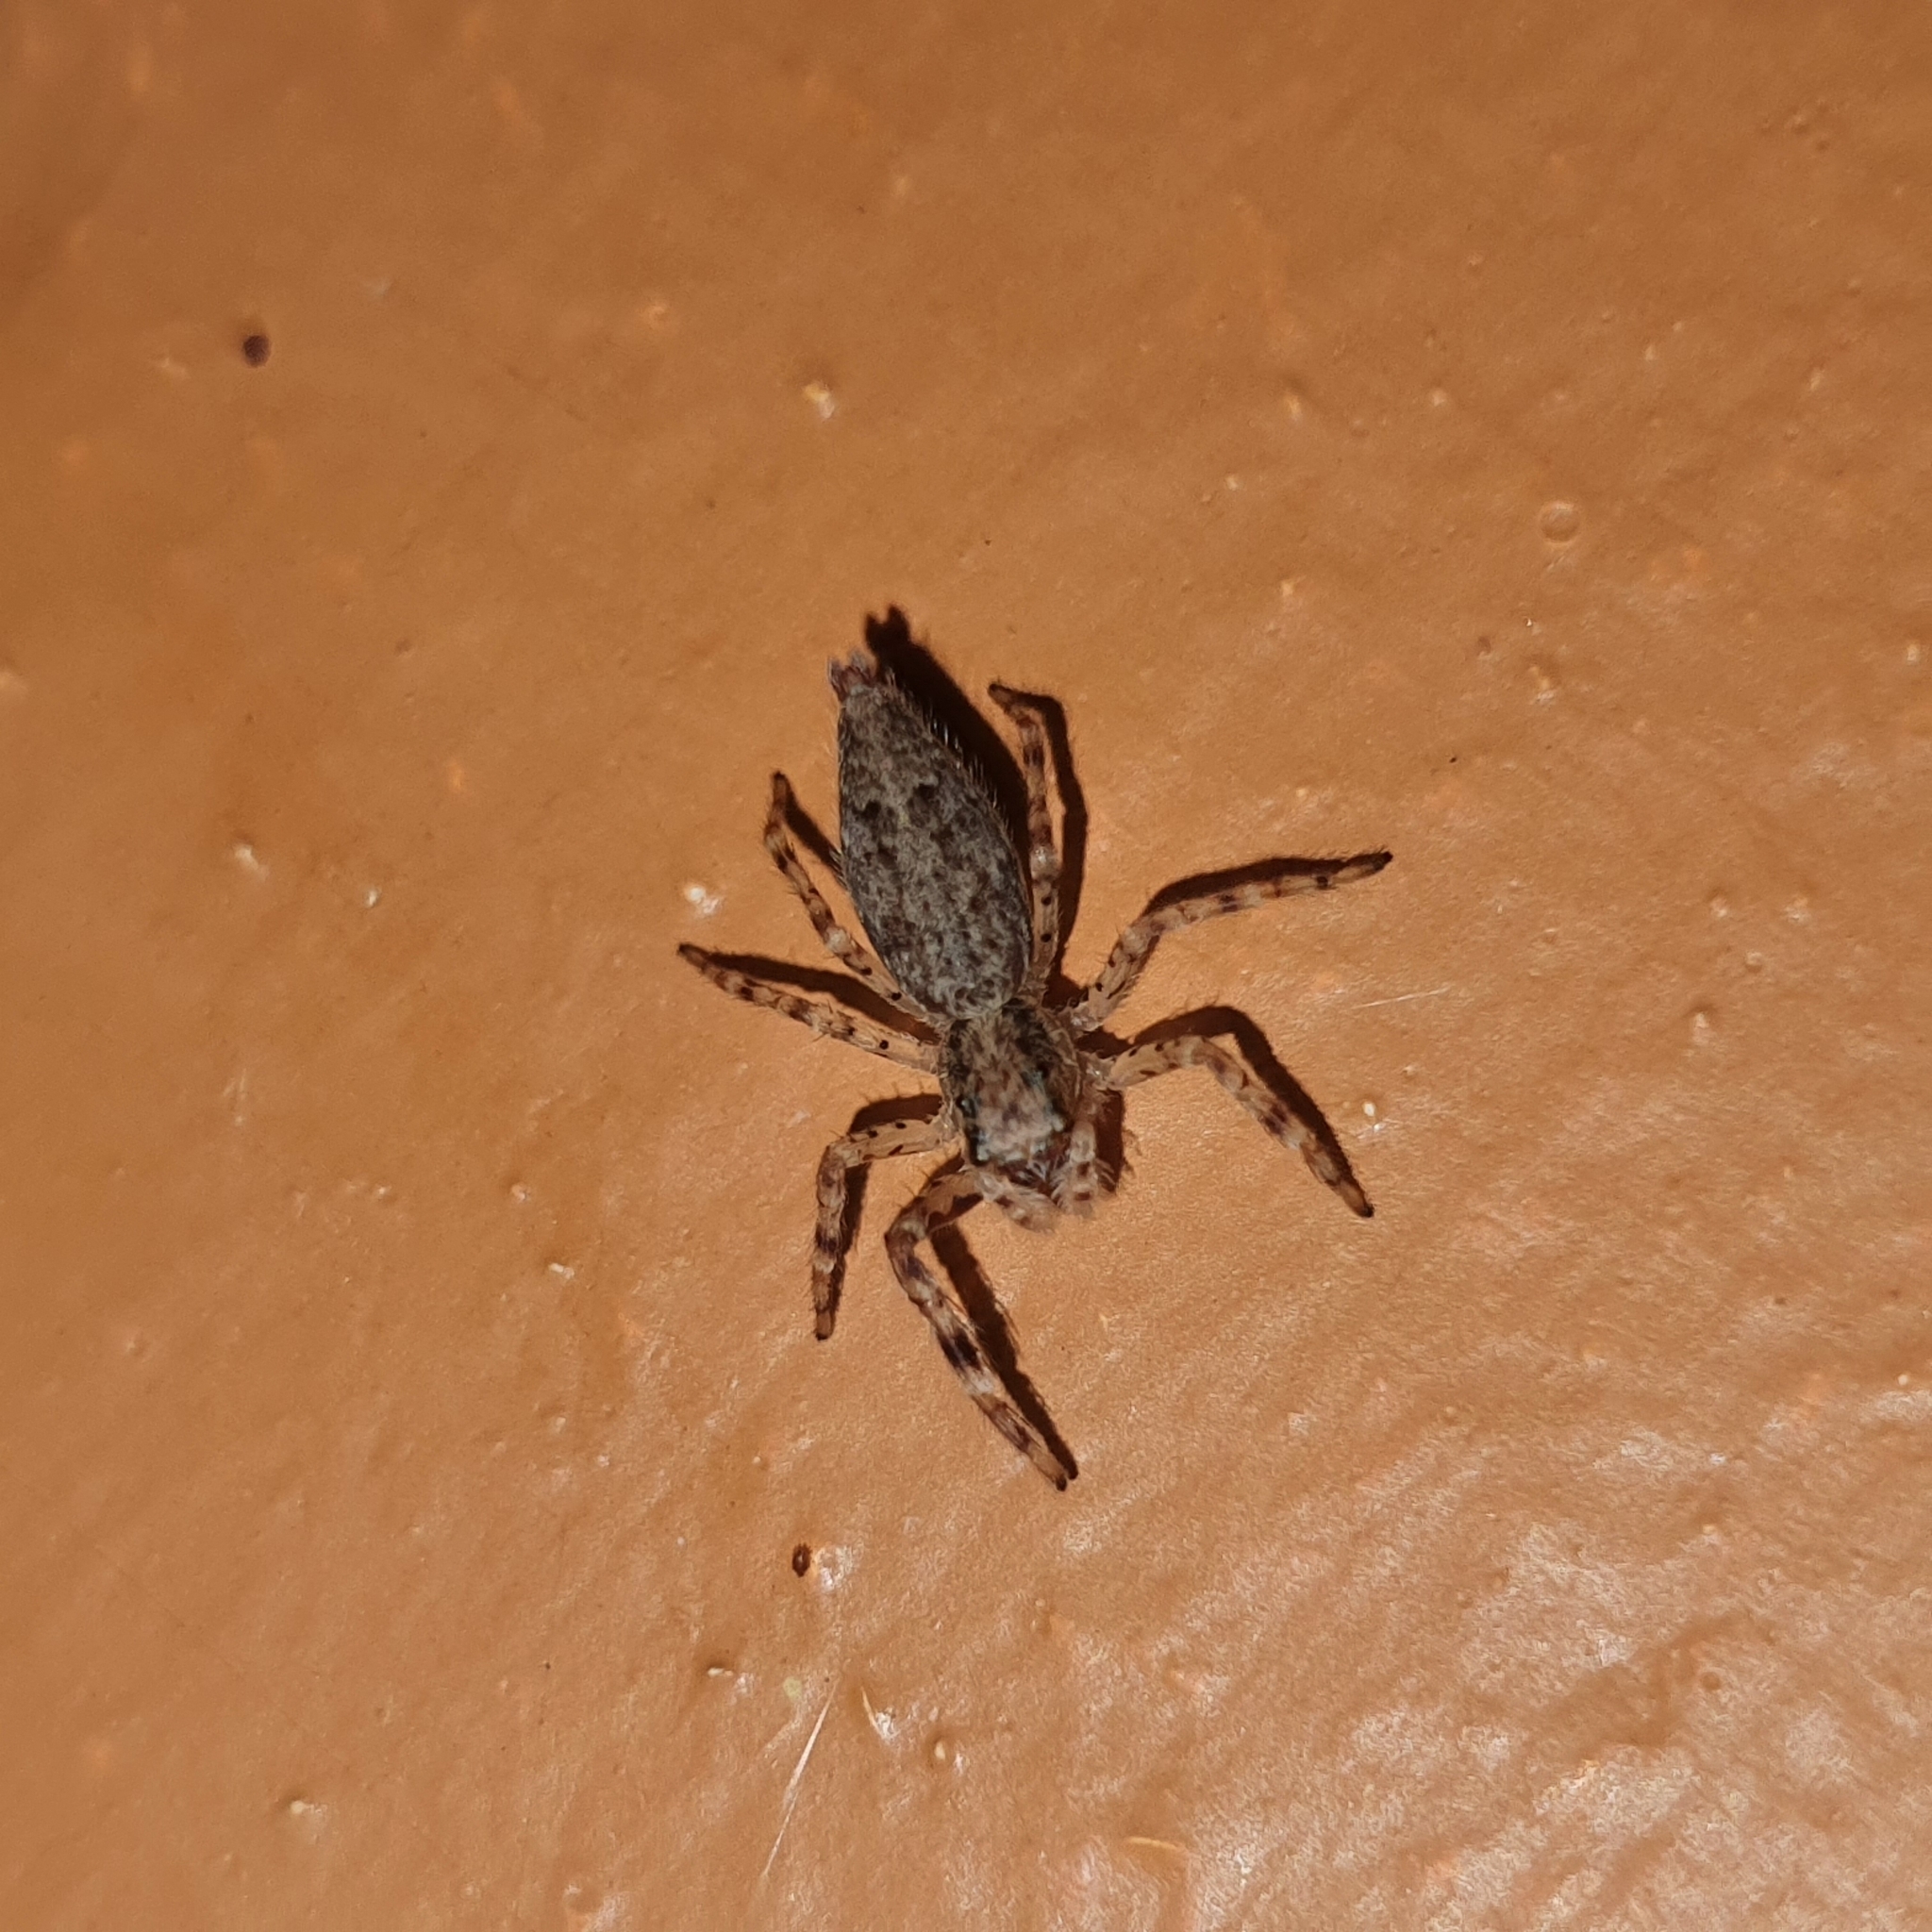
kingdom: Animalia
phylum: Arthropoda
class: Arachnida
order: Araneae
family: Salticidae
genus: Helpis
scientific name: Helpis minitabunda
